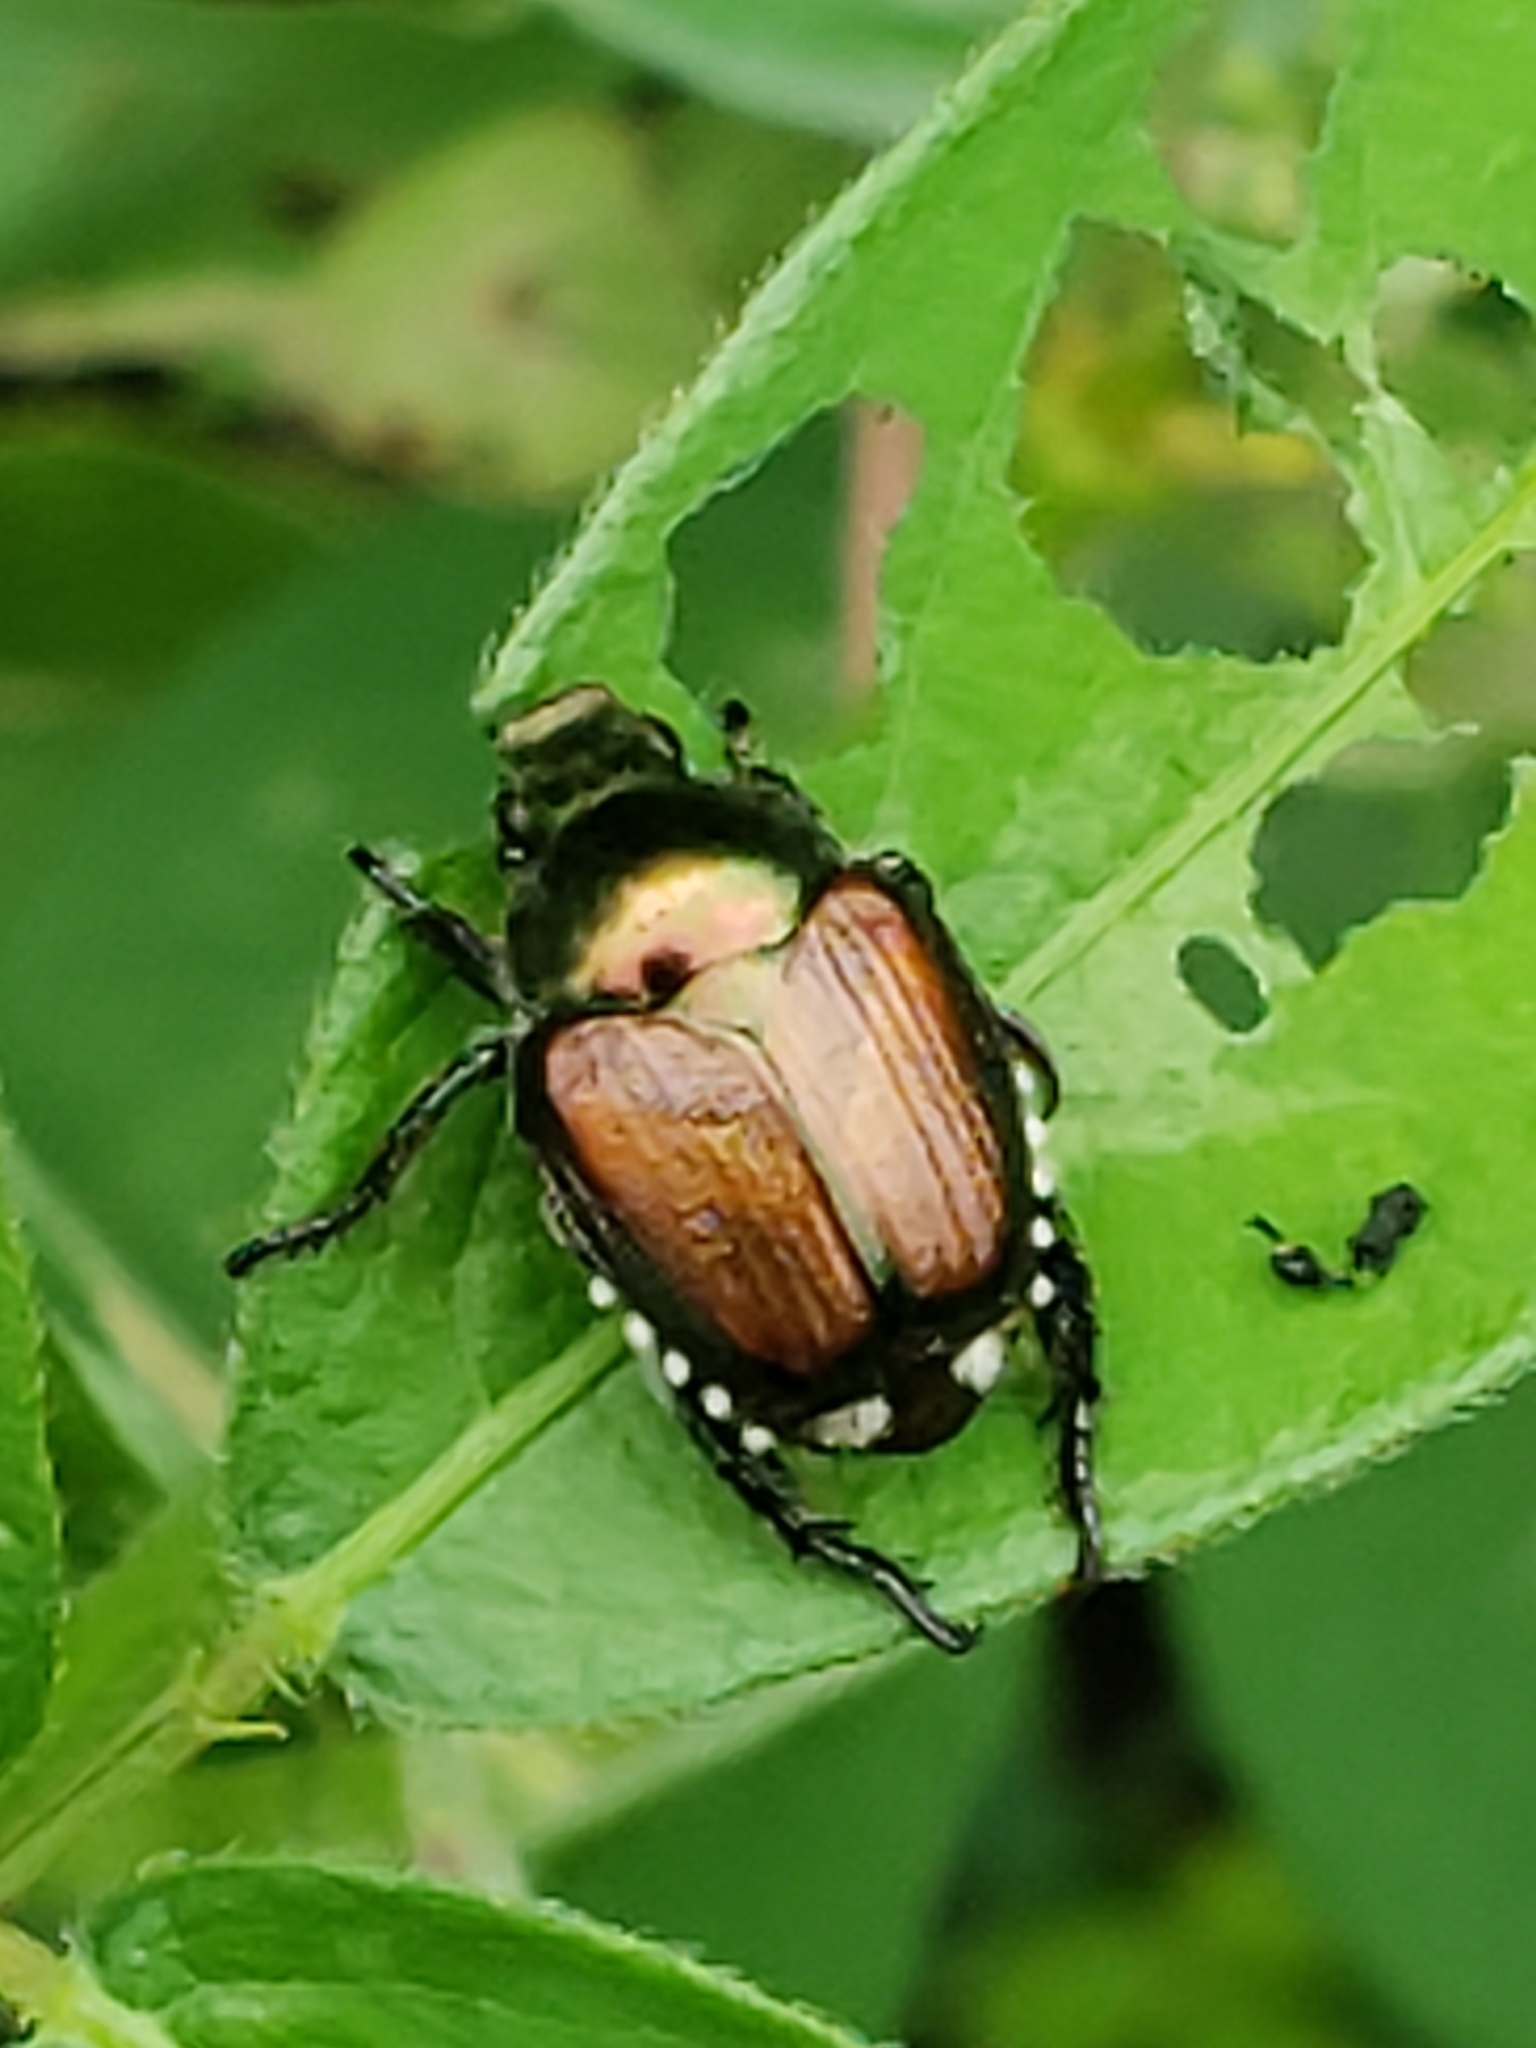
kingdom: Animalia
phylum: Arthropoda
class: Insecta
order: Coleoptera
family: Scarabaeidae
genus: Popillia
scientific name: Popillia japonica
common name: Japanese beetle
